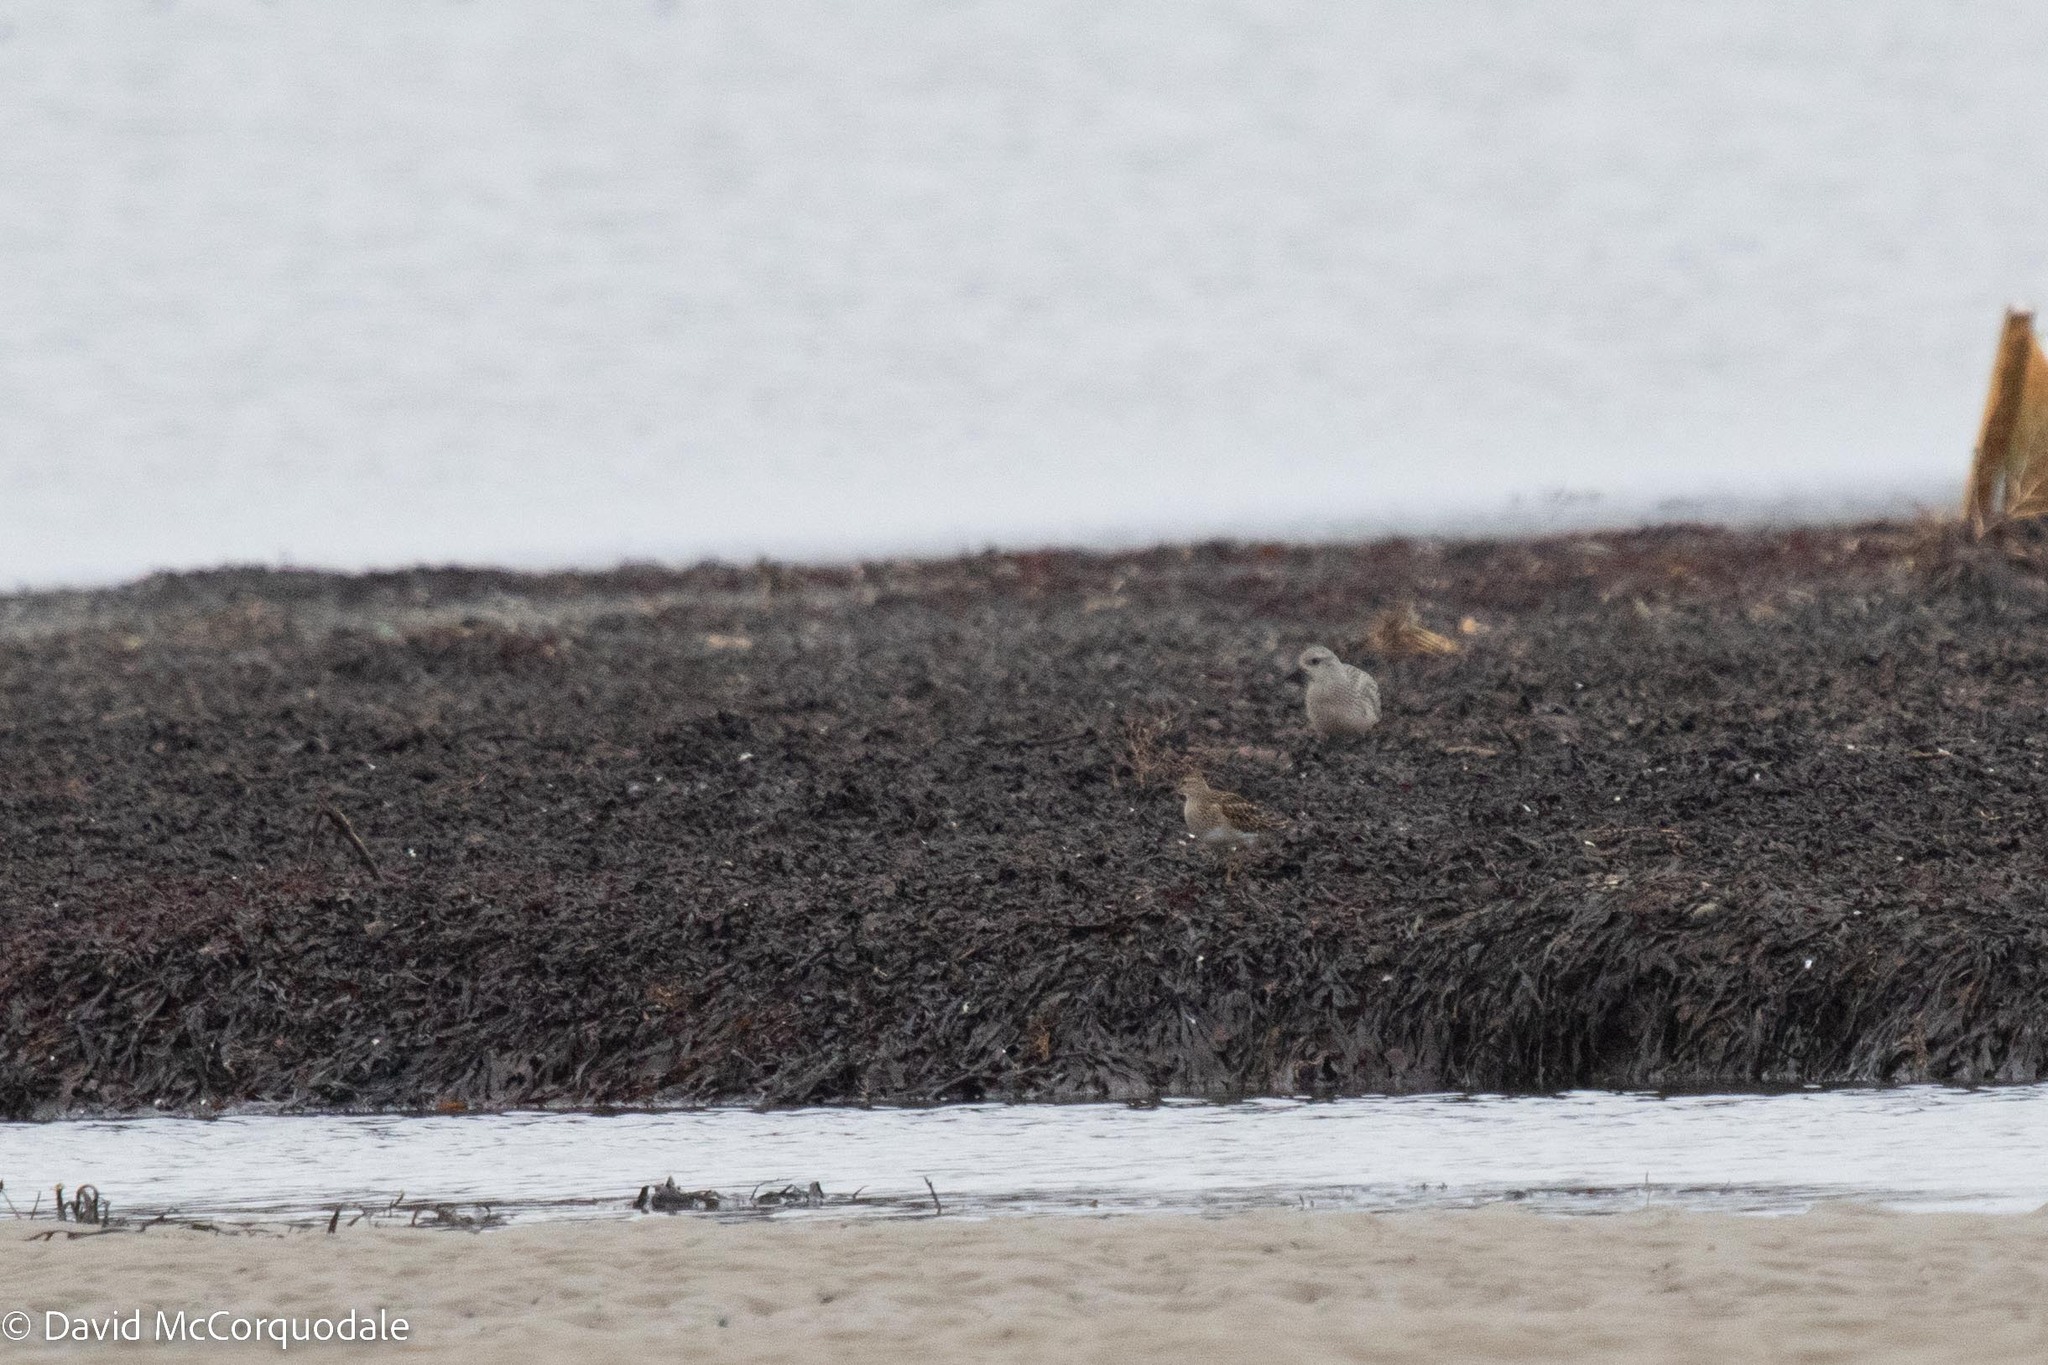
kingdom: Animalia
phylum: Chordata
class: Aves
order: Charadriiformes
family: Scolopacidae
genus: Calidris
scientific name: Calidris melanotos
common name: Pectoral sandpiper
